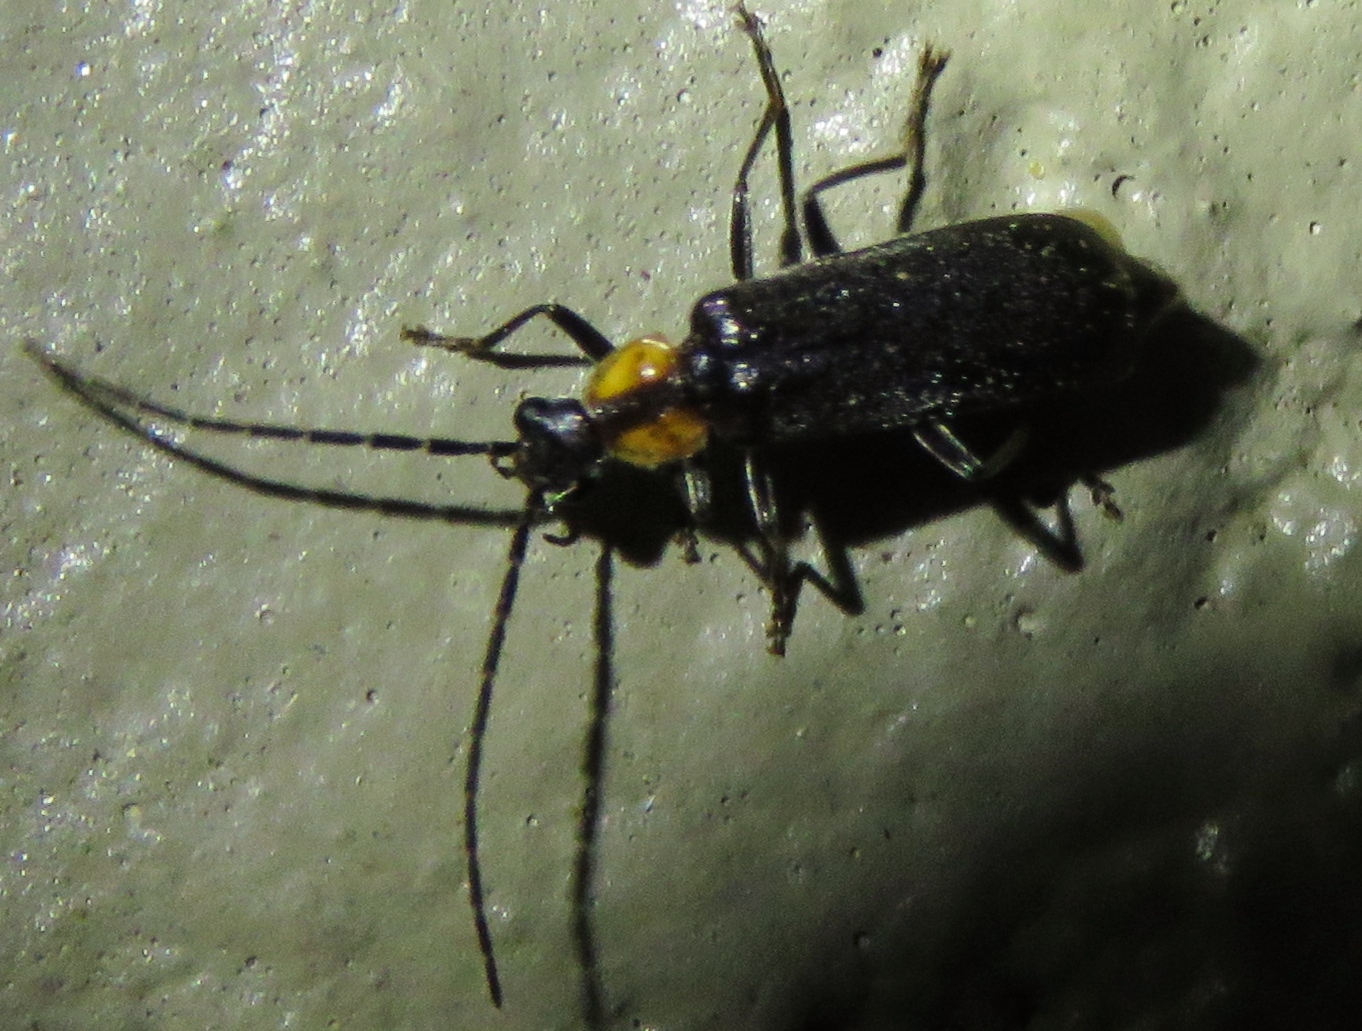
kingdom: Animalia
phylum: Arthropoda
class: Insecta
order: Coleoptera
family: Cantharidae
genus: Rhagonycha
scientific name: Rhagonycha lineola
